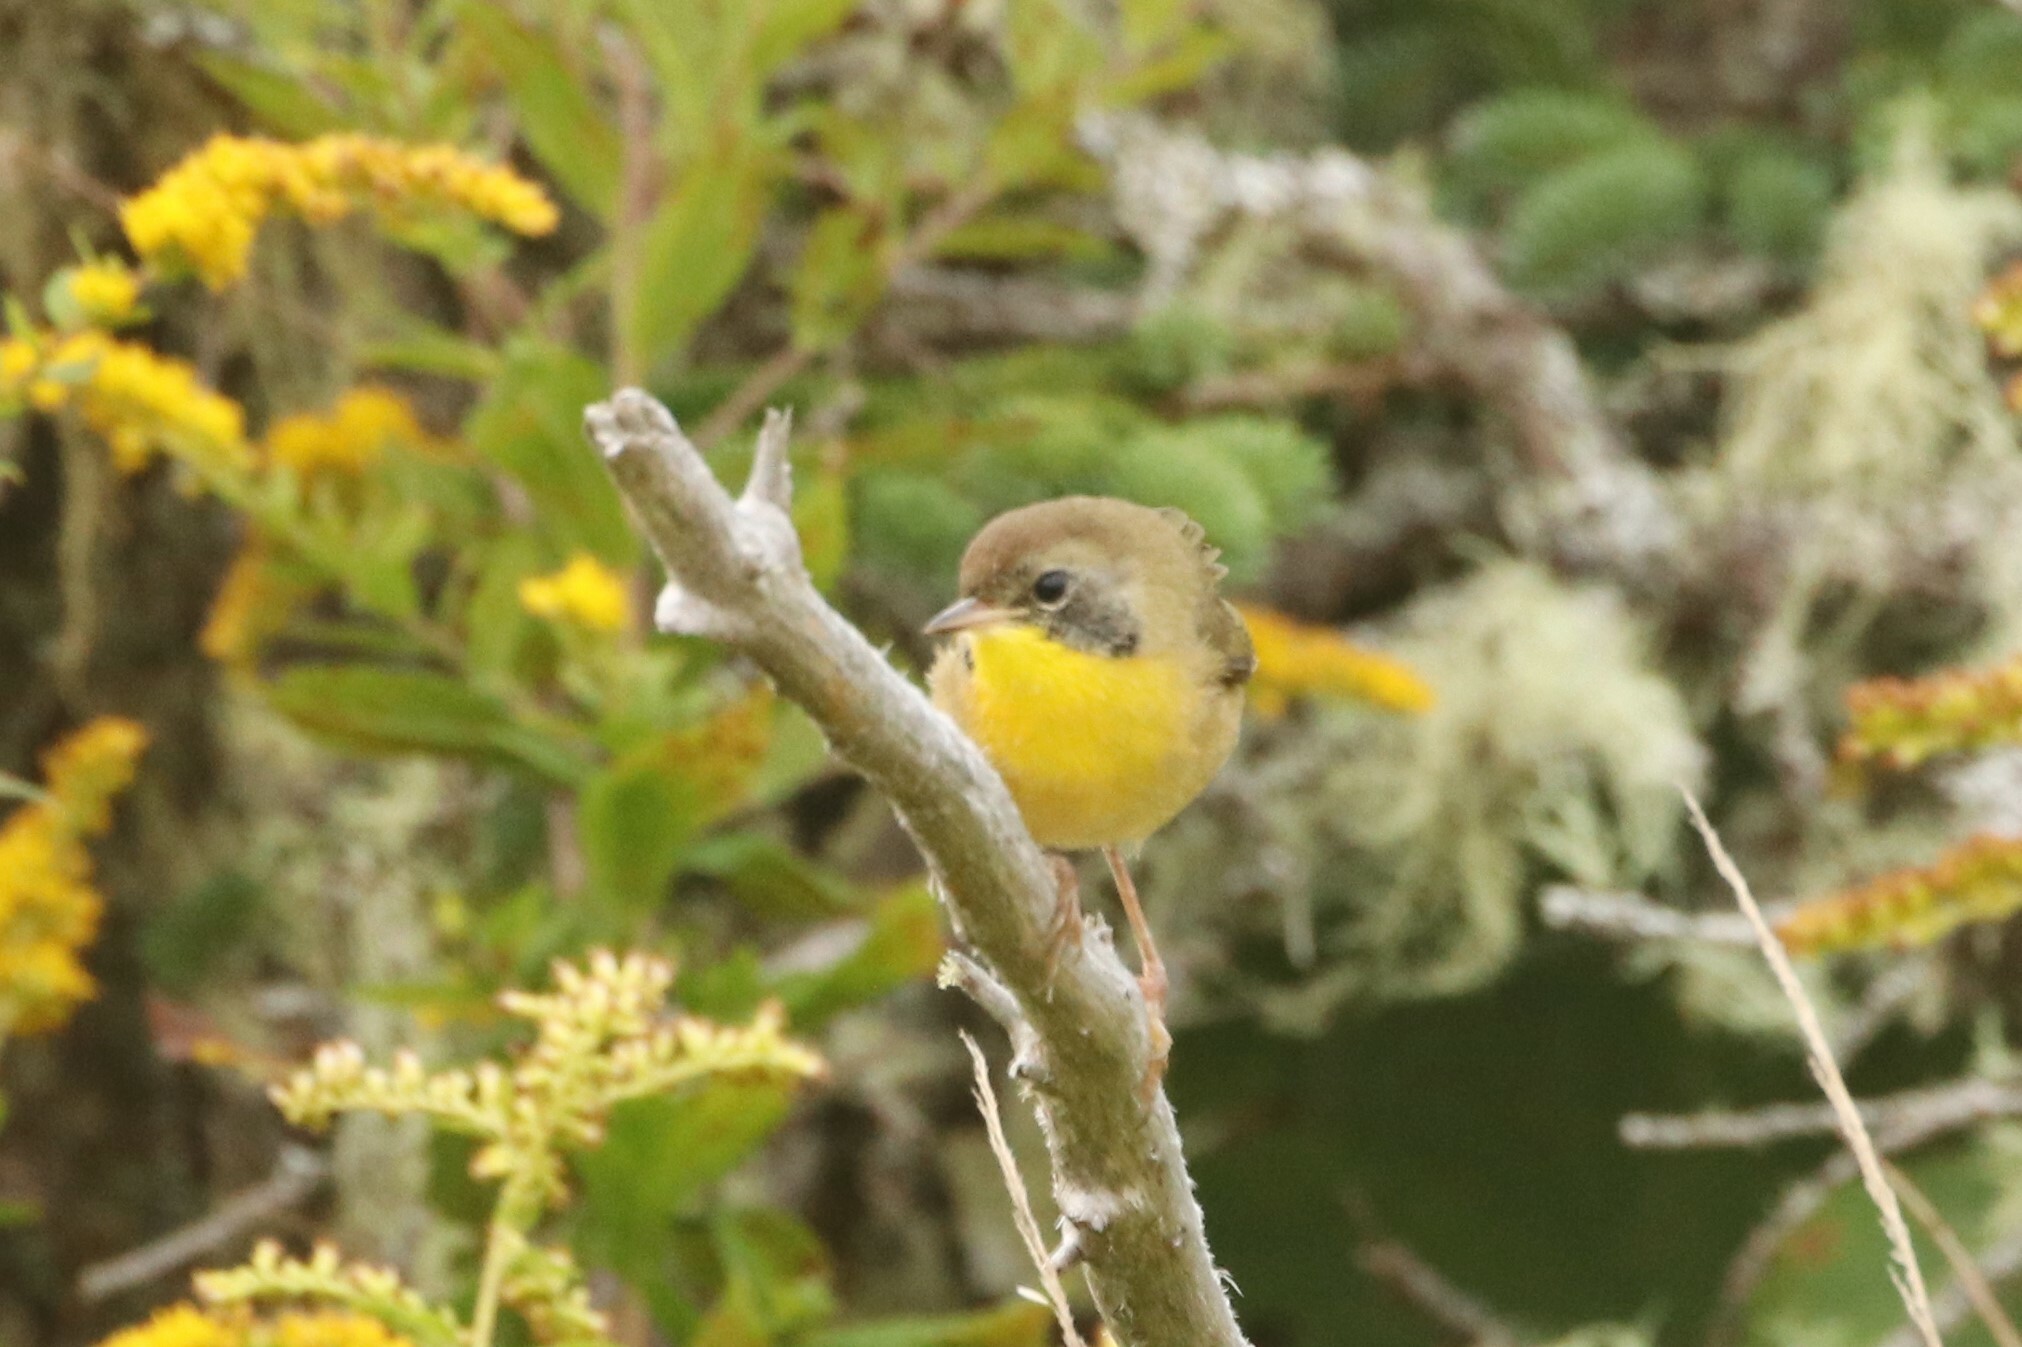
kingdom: Animalia
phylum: Chordata
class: Aves
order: Passeriformes
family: Parulidae
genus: Geothlypis
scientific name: Geothlypis trichas
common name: Common yellowthroat
